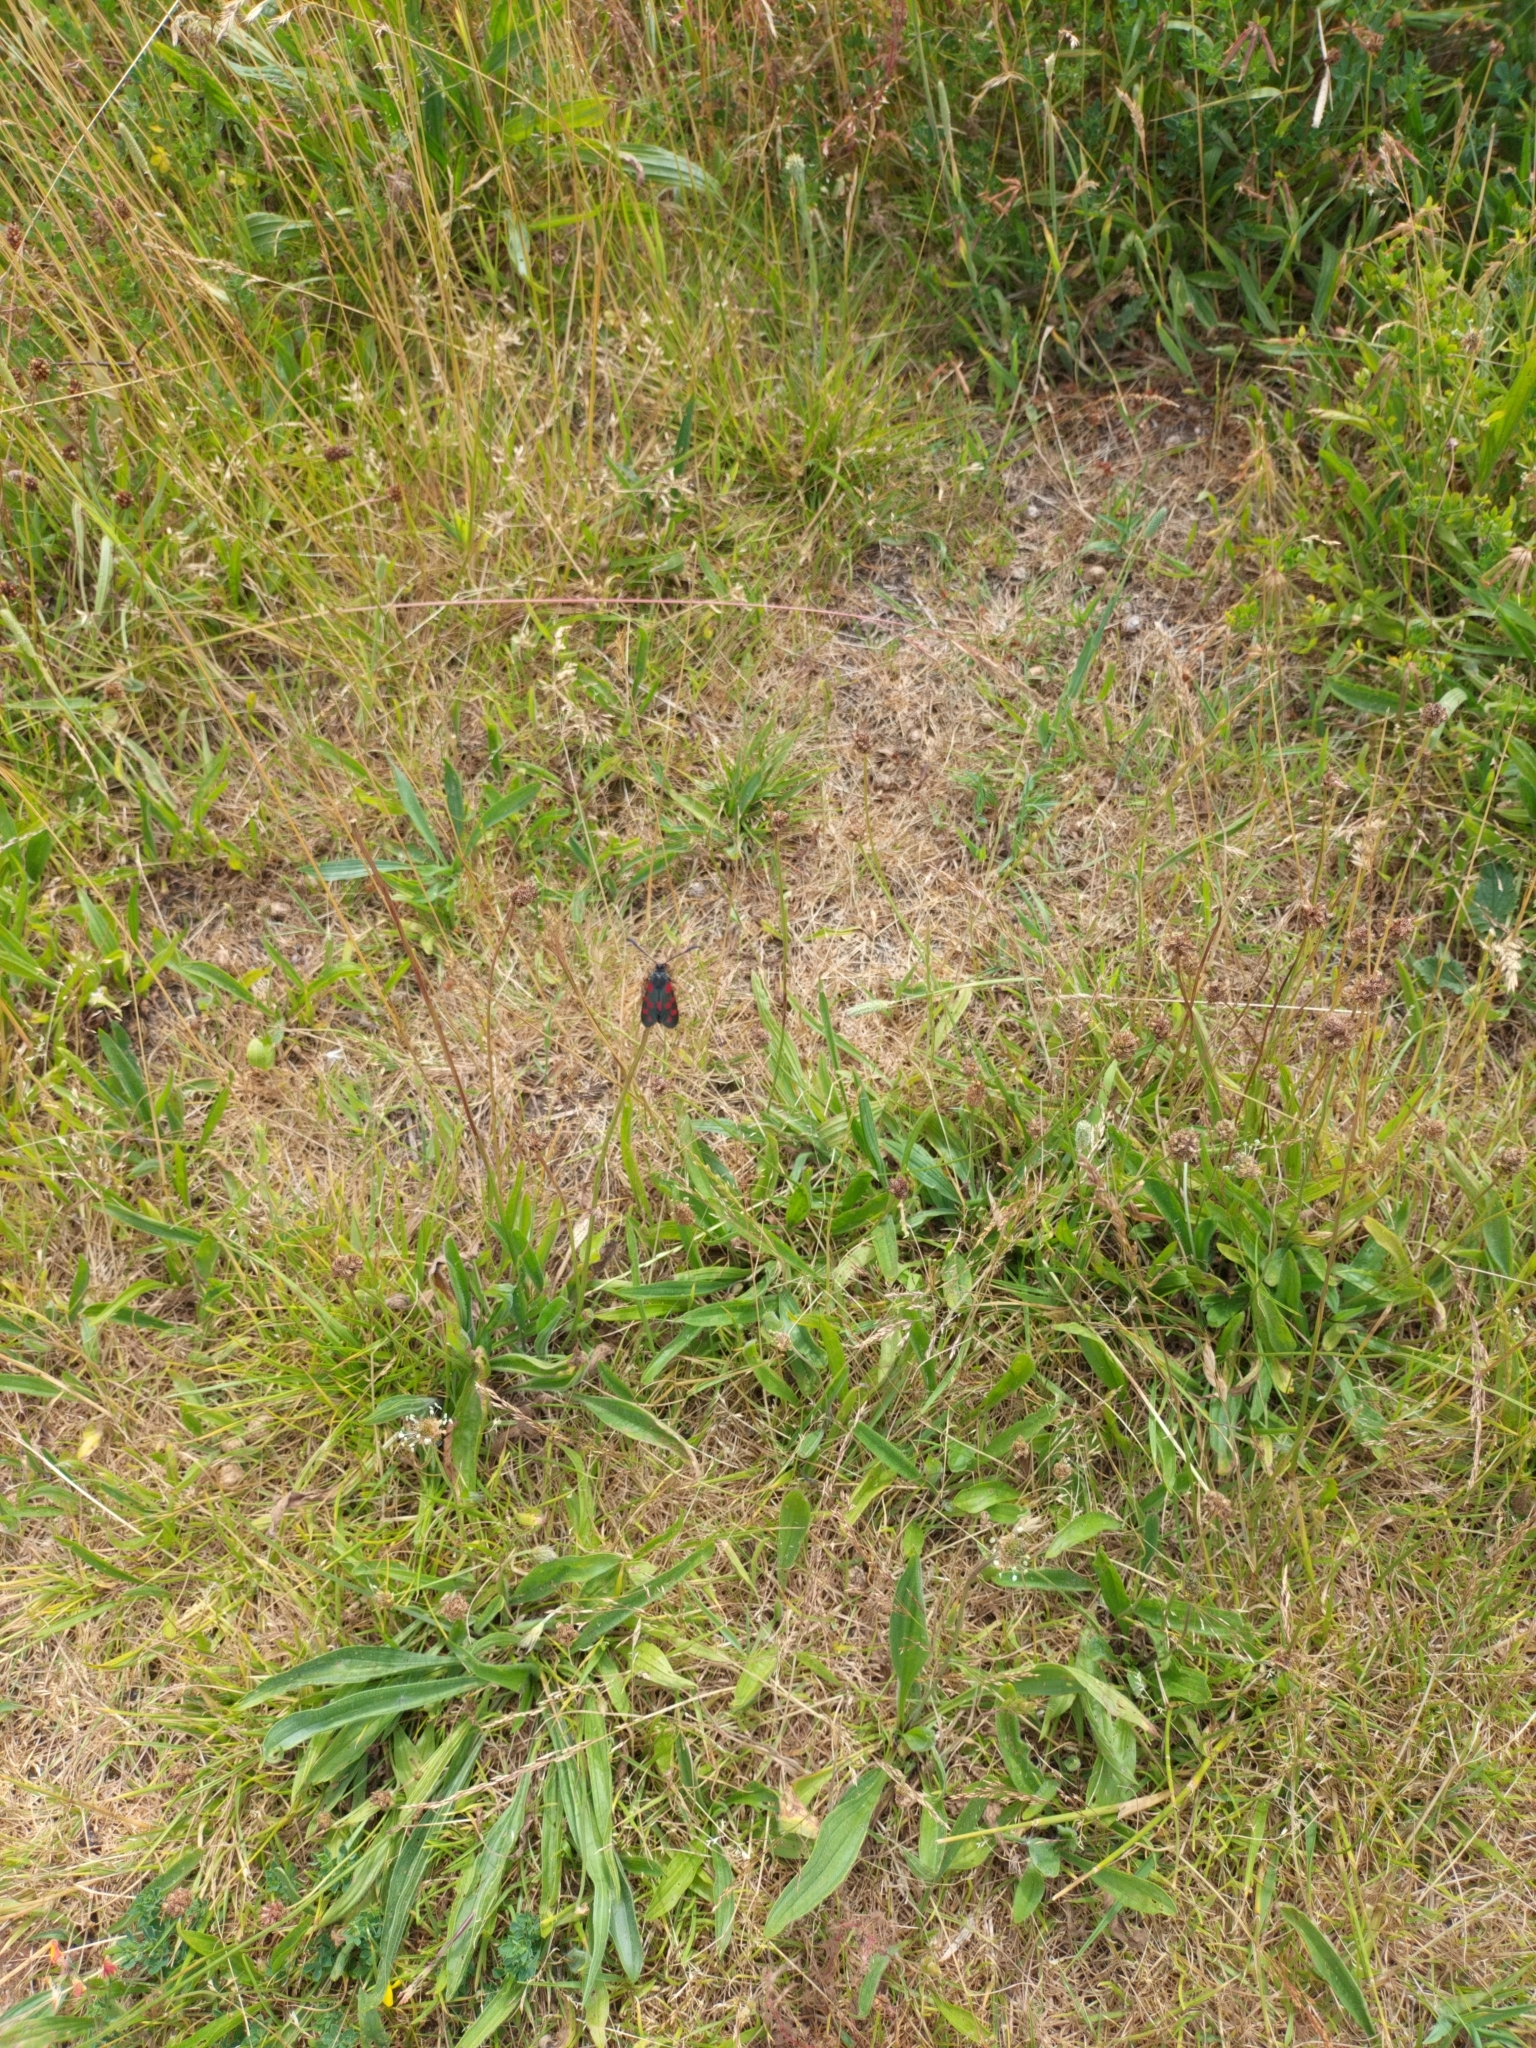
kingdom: Animalia
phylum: Arthropoda
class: Insecta
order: Lepidoptera
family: Zygaenidae
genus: Zygaena
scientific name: Zygaena filipendulae
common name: Six-spot burnet
